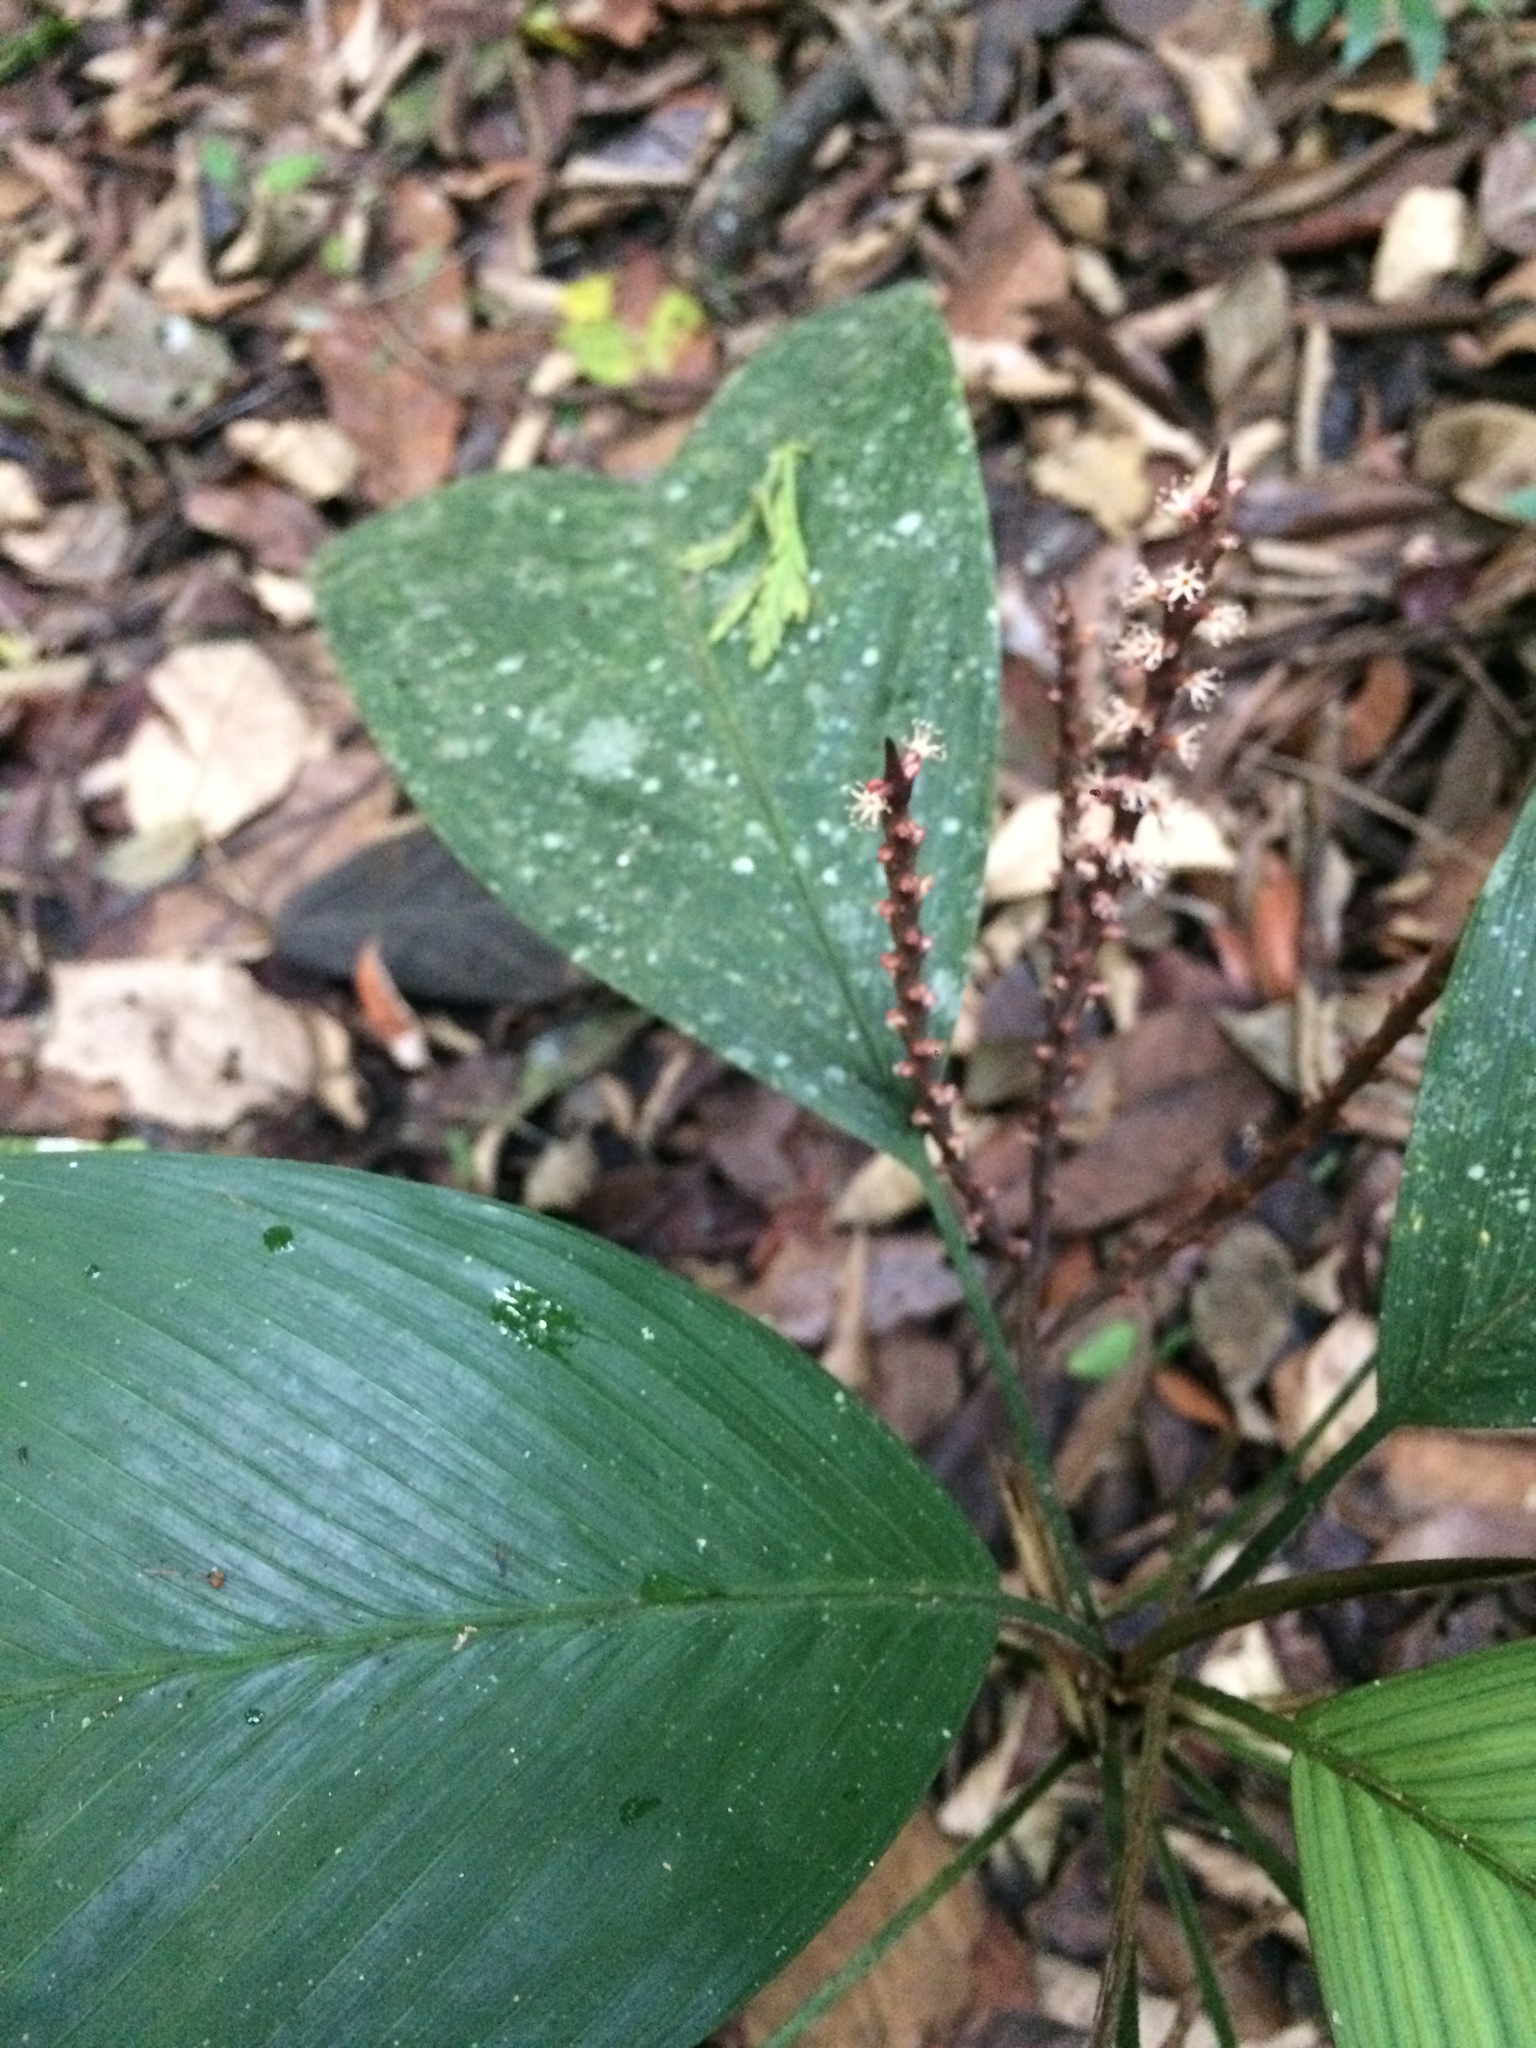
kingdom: Plantae
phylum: Tracheophyta
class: Liliopsida
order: Arecales
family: Arecaceae
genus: Geonoma
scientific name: Geonoma pauciflora
